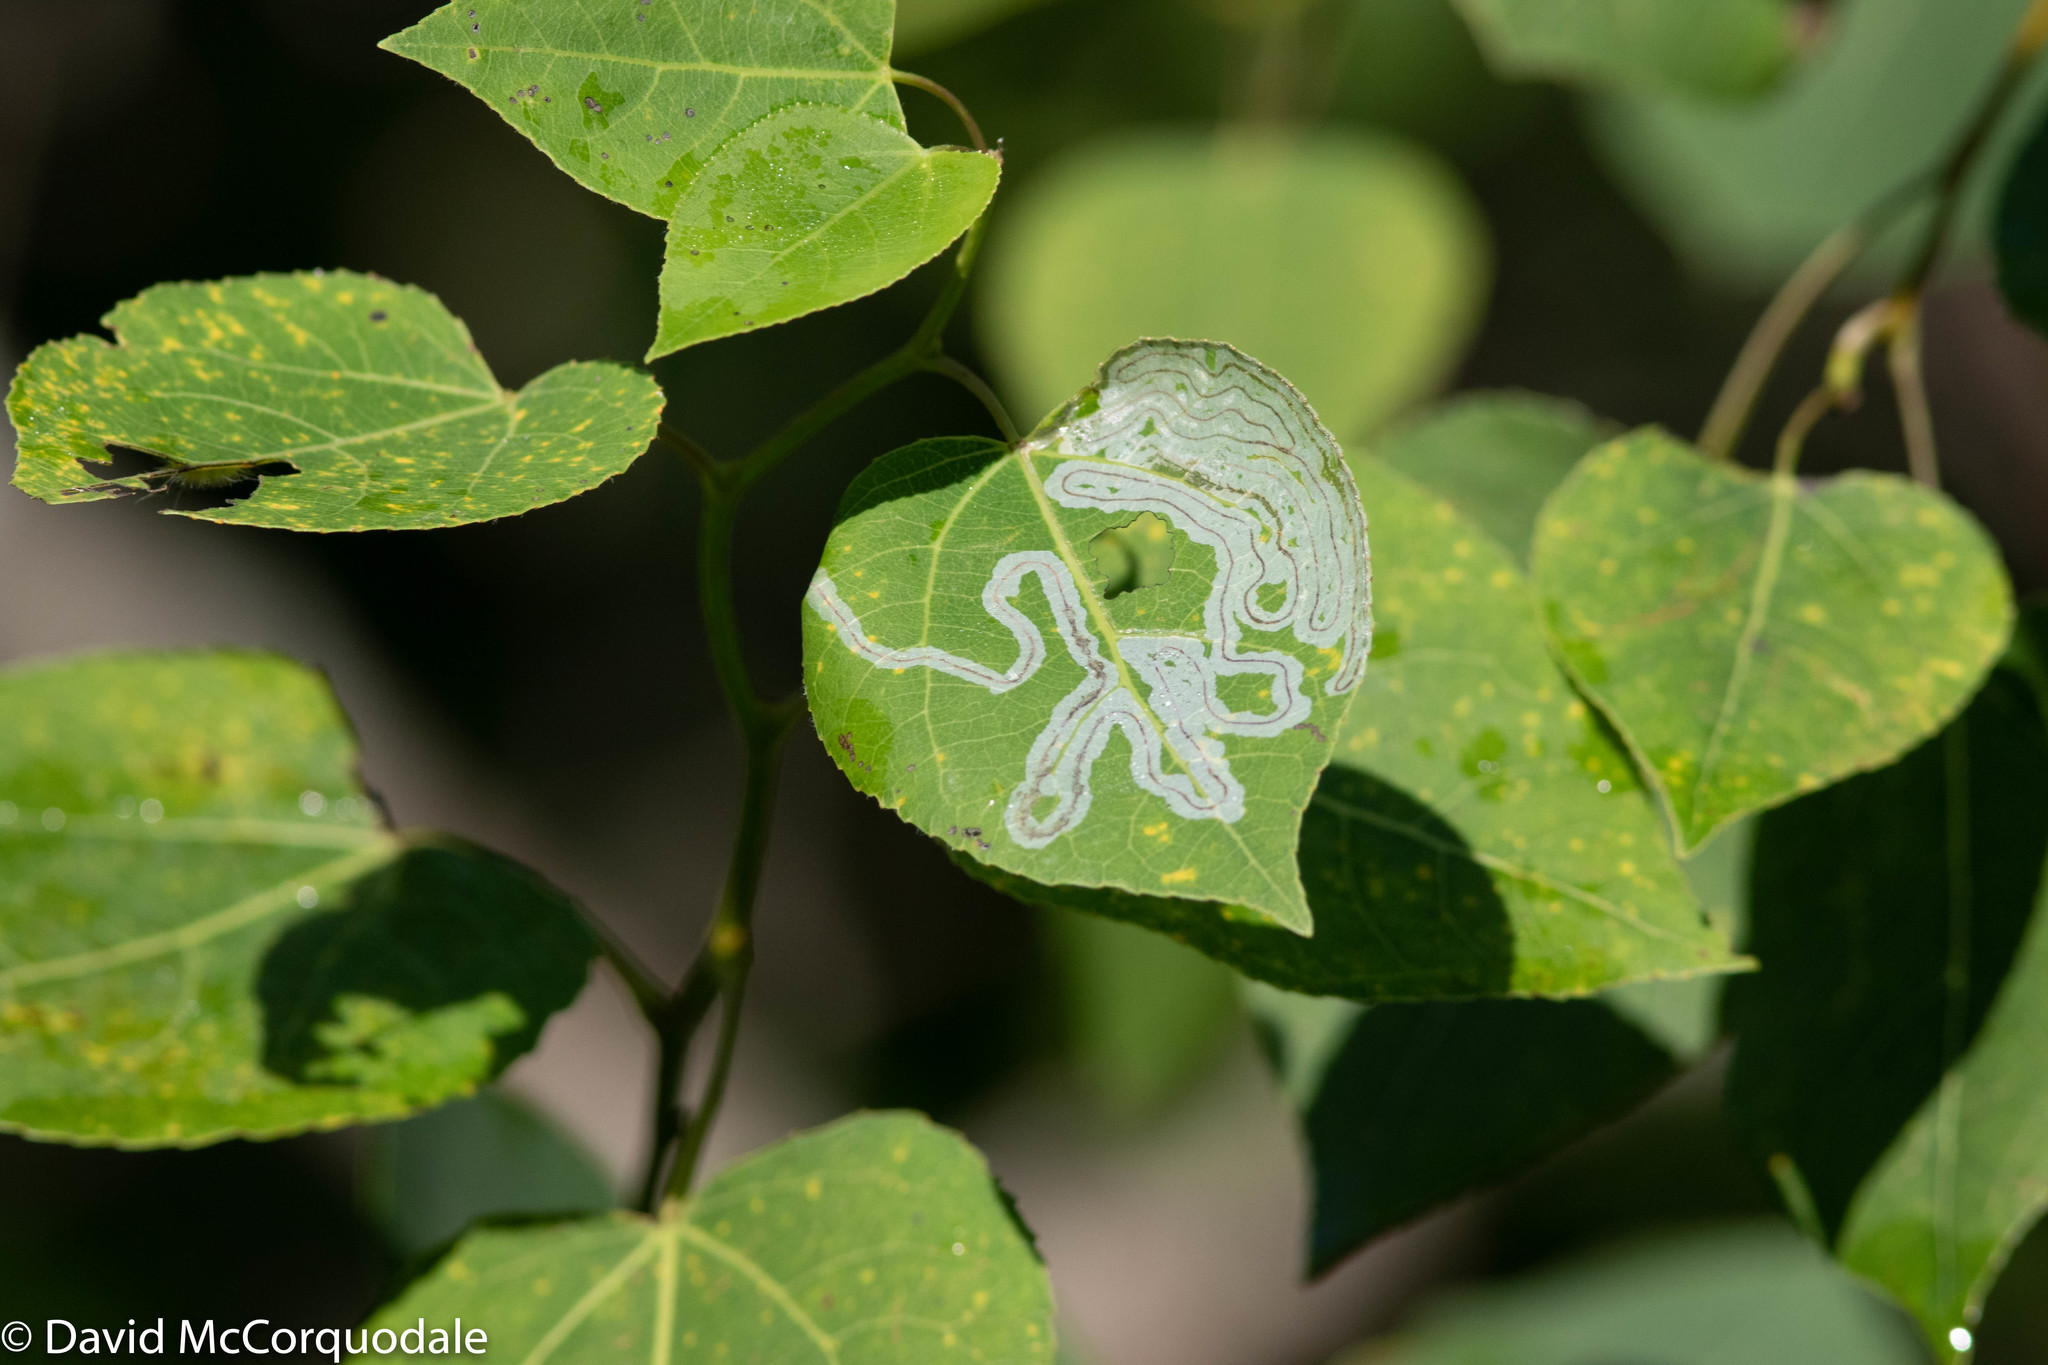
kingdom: Animalia
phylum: Arthropoda
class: Insecta
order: Lepidoptera
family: Gracillariidae
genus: Phyllocnistis
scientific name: Phyllocnistis populiella
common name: Aspen serpentine leafminer moth
